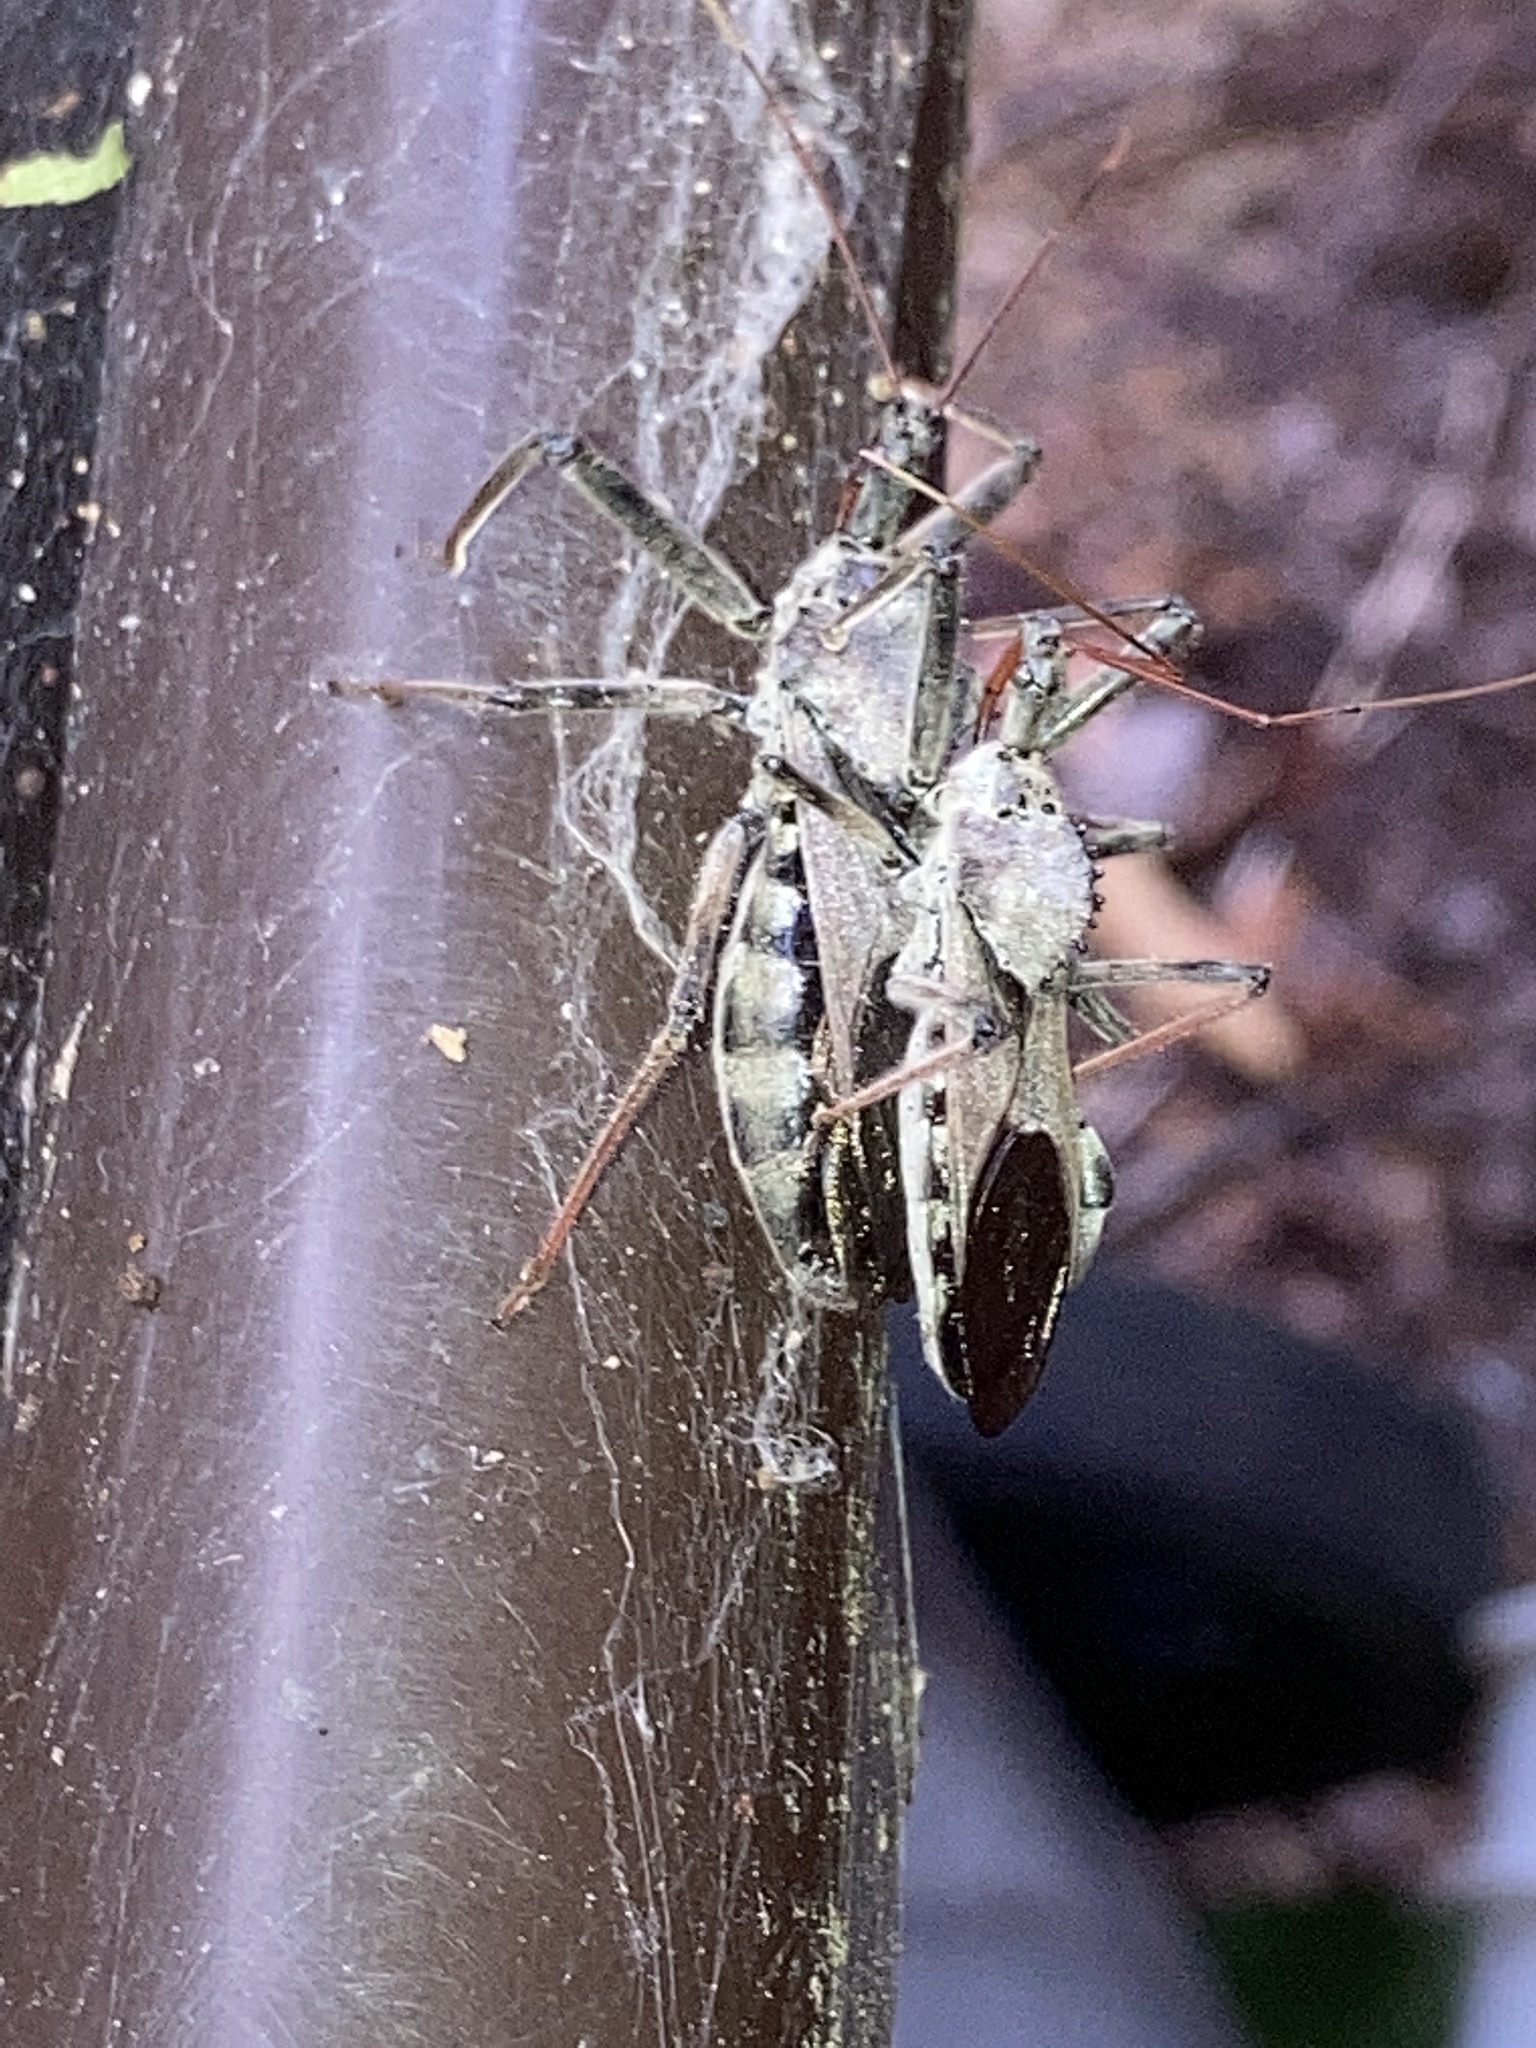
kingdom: Animalia
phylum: Arthropoda
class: Insecta
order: Hemiptera
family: Reduviidae
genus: Arilus
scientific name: Arilus cristatus
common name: North american wheel bug
